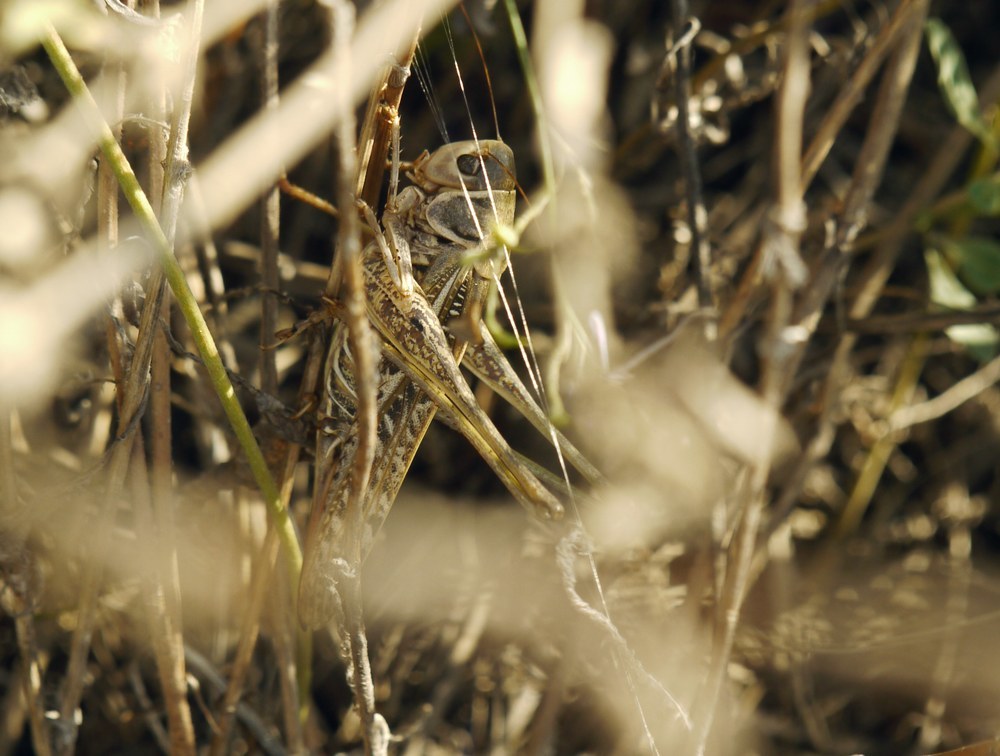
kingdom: Animalia
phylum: Arthropoda
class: Insecta
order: Orthoptera
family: Tettigoniidae
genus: Decticus
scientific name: Decticus albifrons
